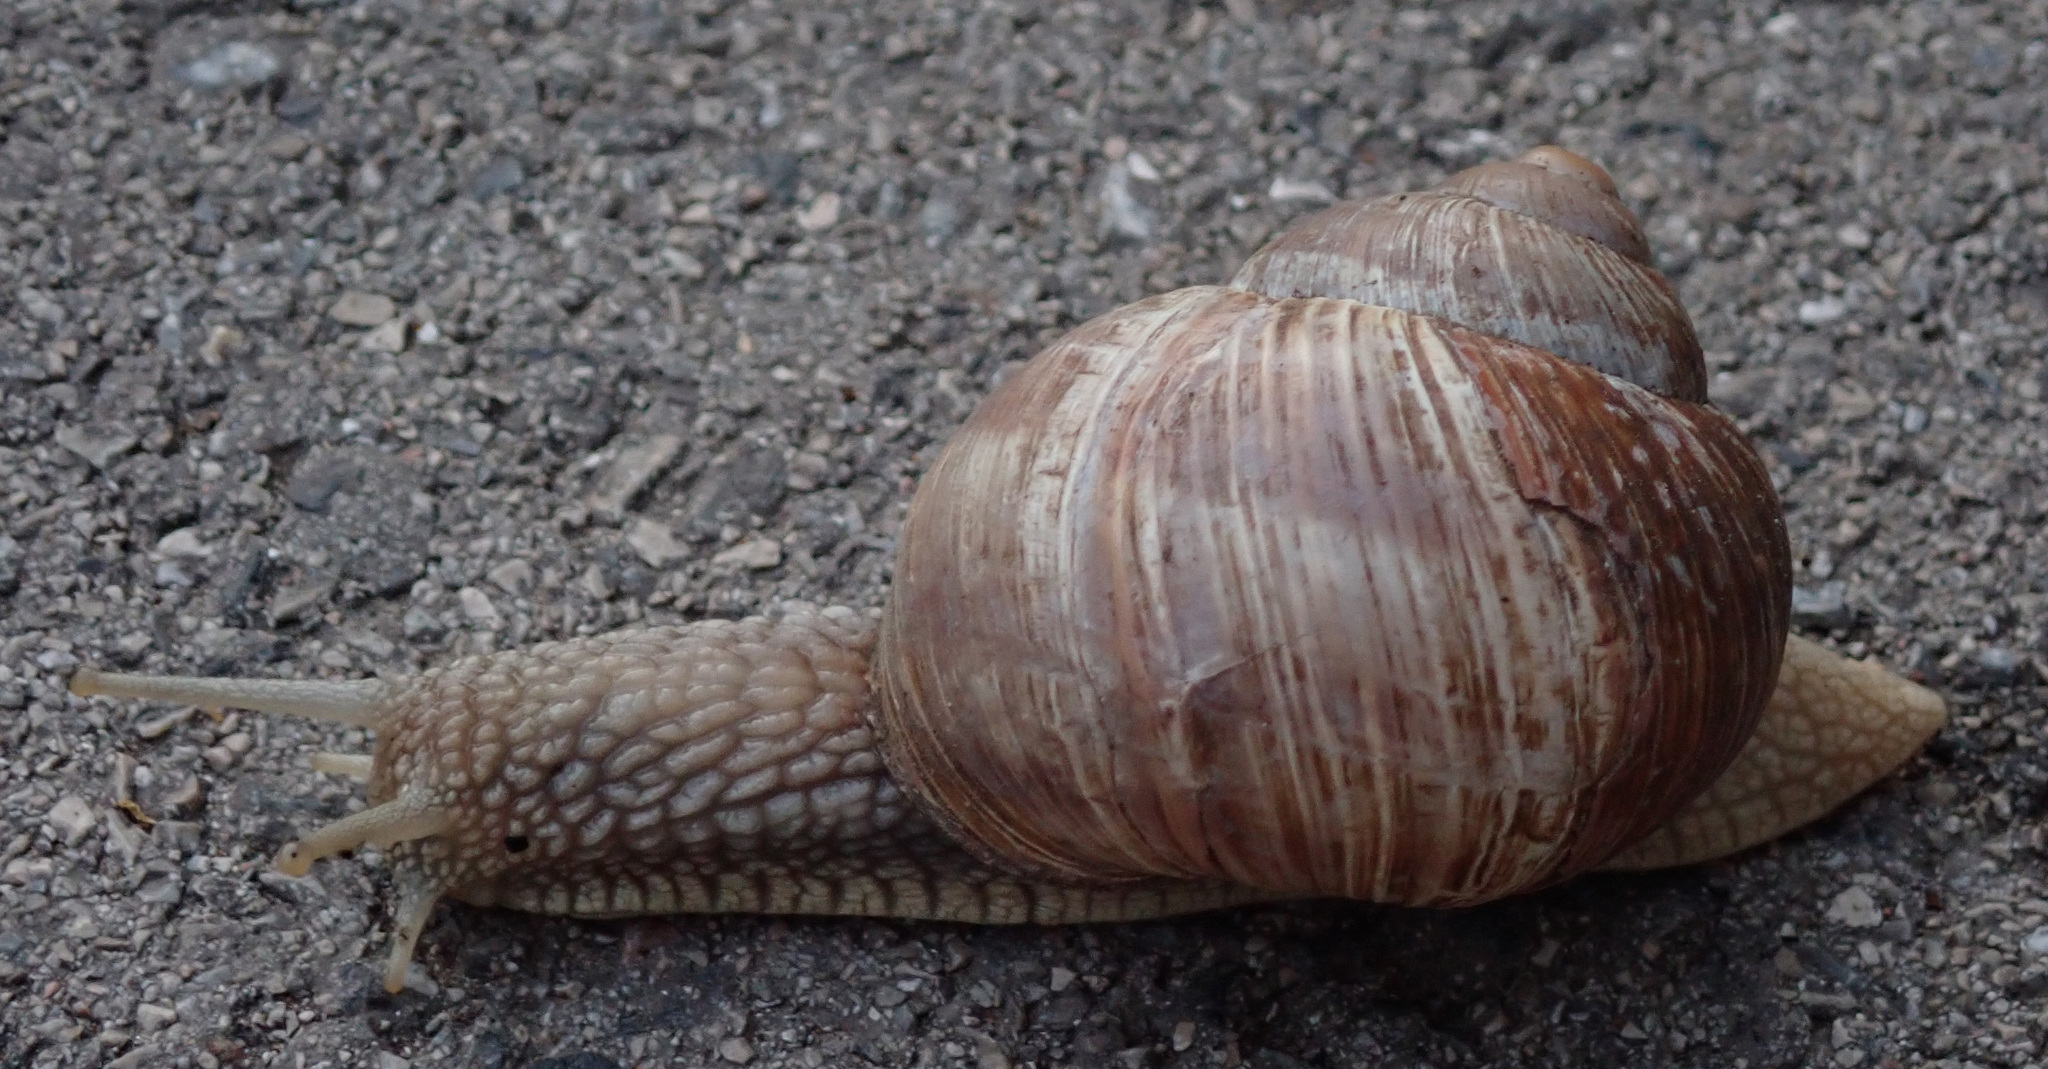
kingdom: Animalia
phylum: Mollusca
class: Gastropoda
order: Stylommatophora
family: Helicidae
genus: Helix
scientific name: Helix pomatia
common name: Roman snail
